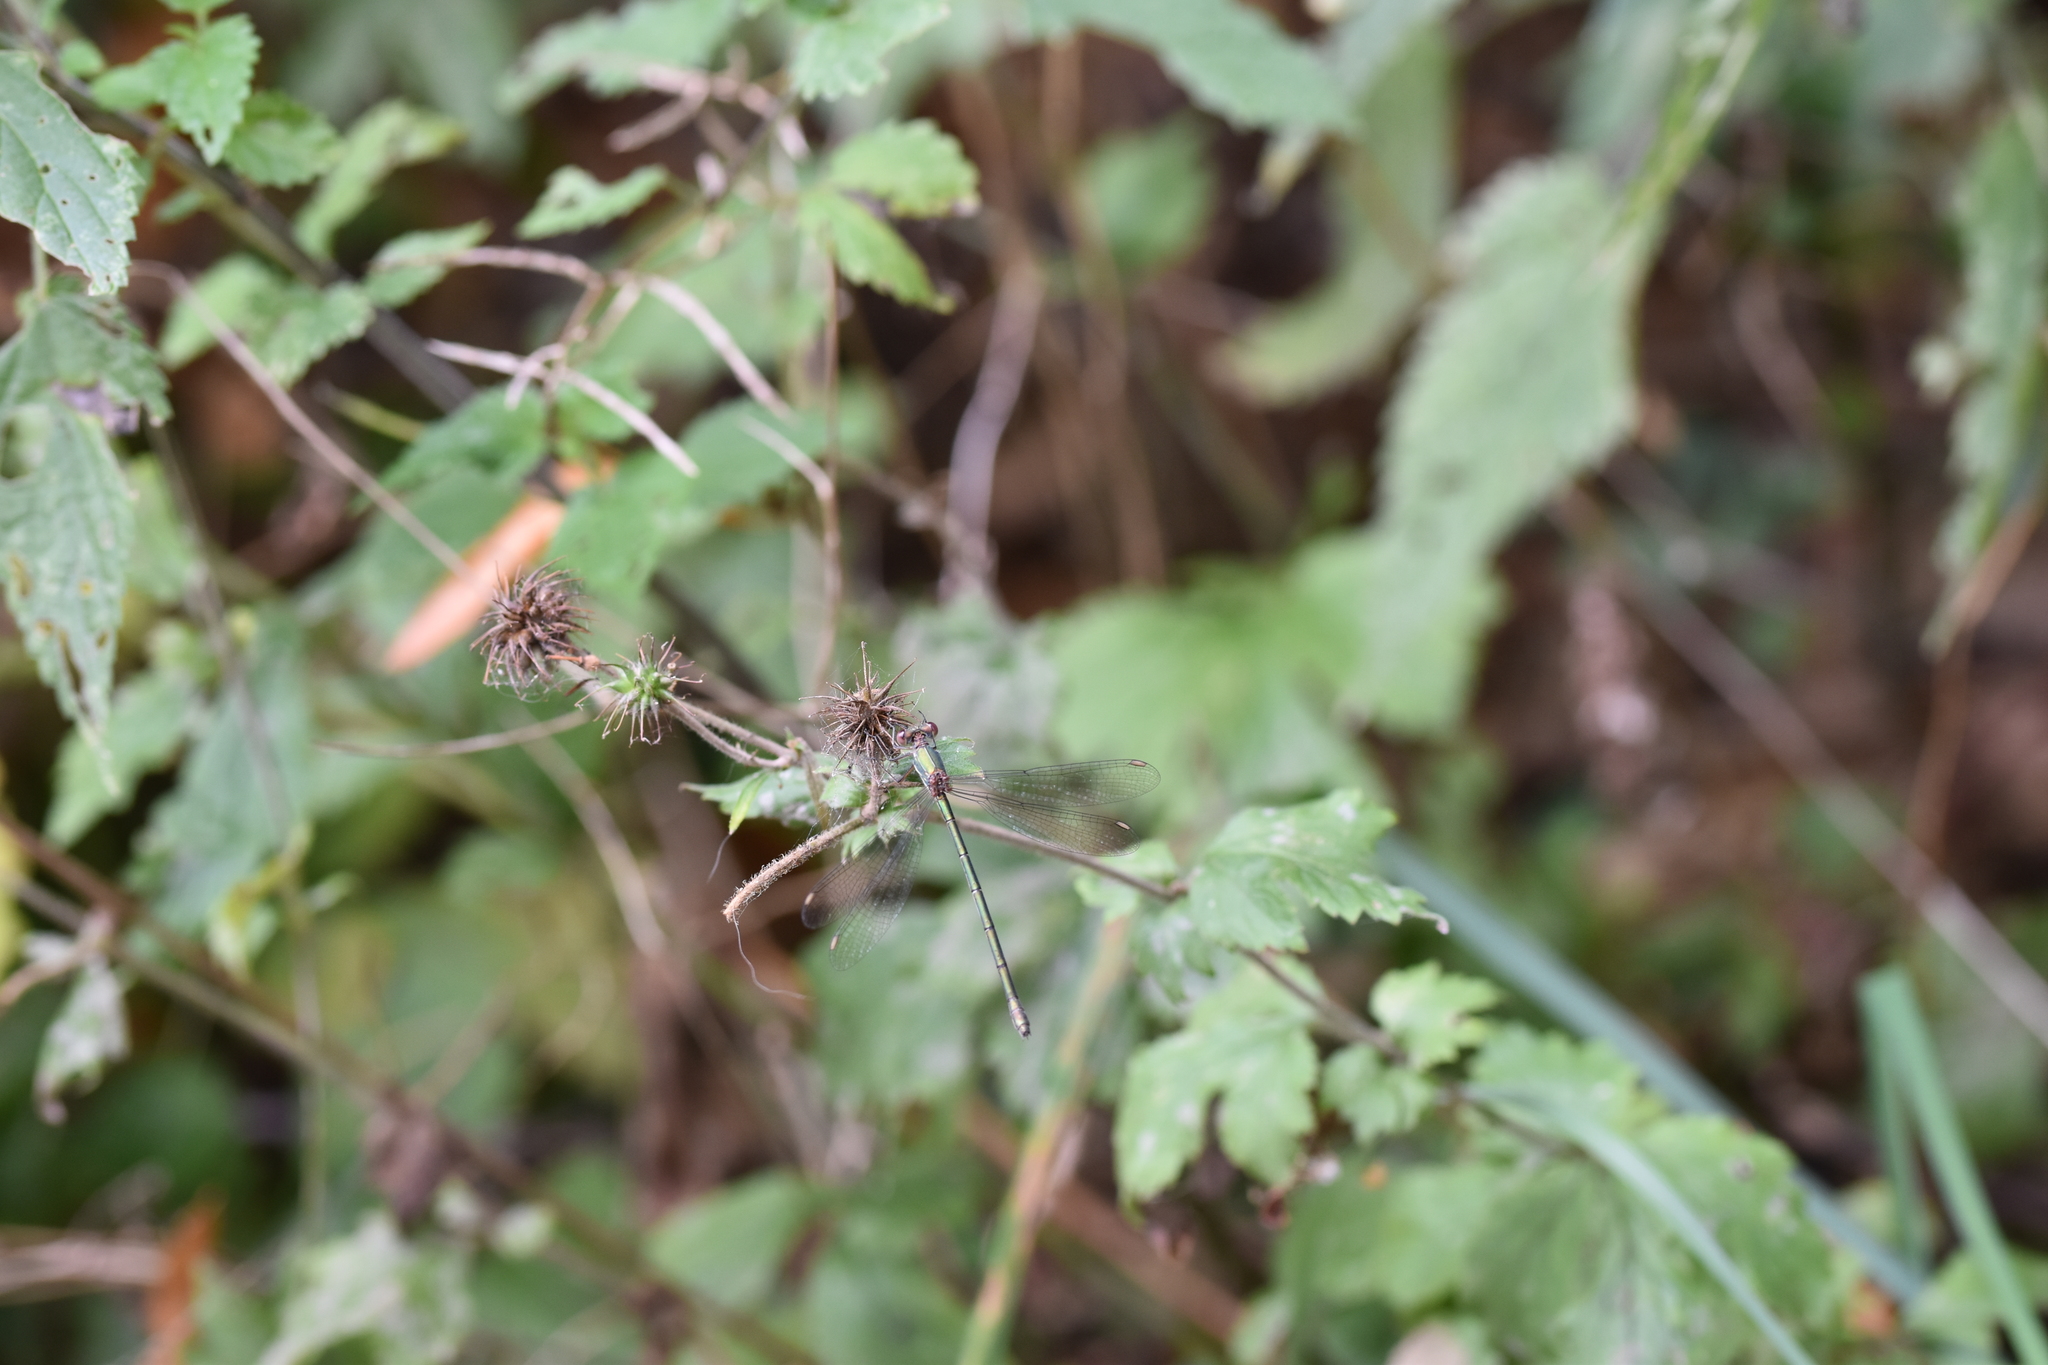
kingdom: Animalia
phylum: Arthropoda
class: Insecta
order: Odonata
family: Lestidae
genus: Chalcolestes
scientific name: Chalcolestes viridis
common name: Green emerald damselfly
